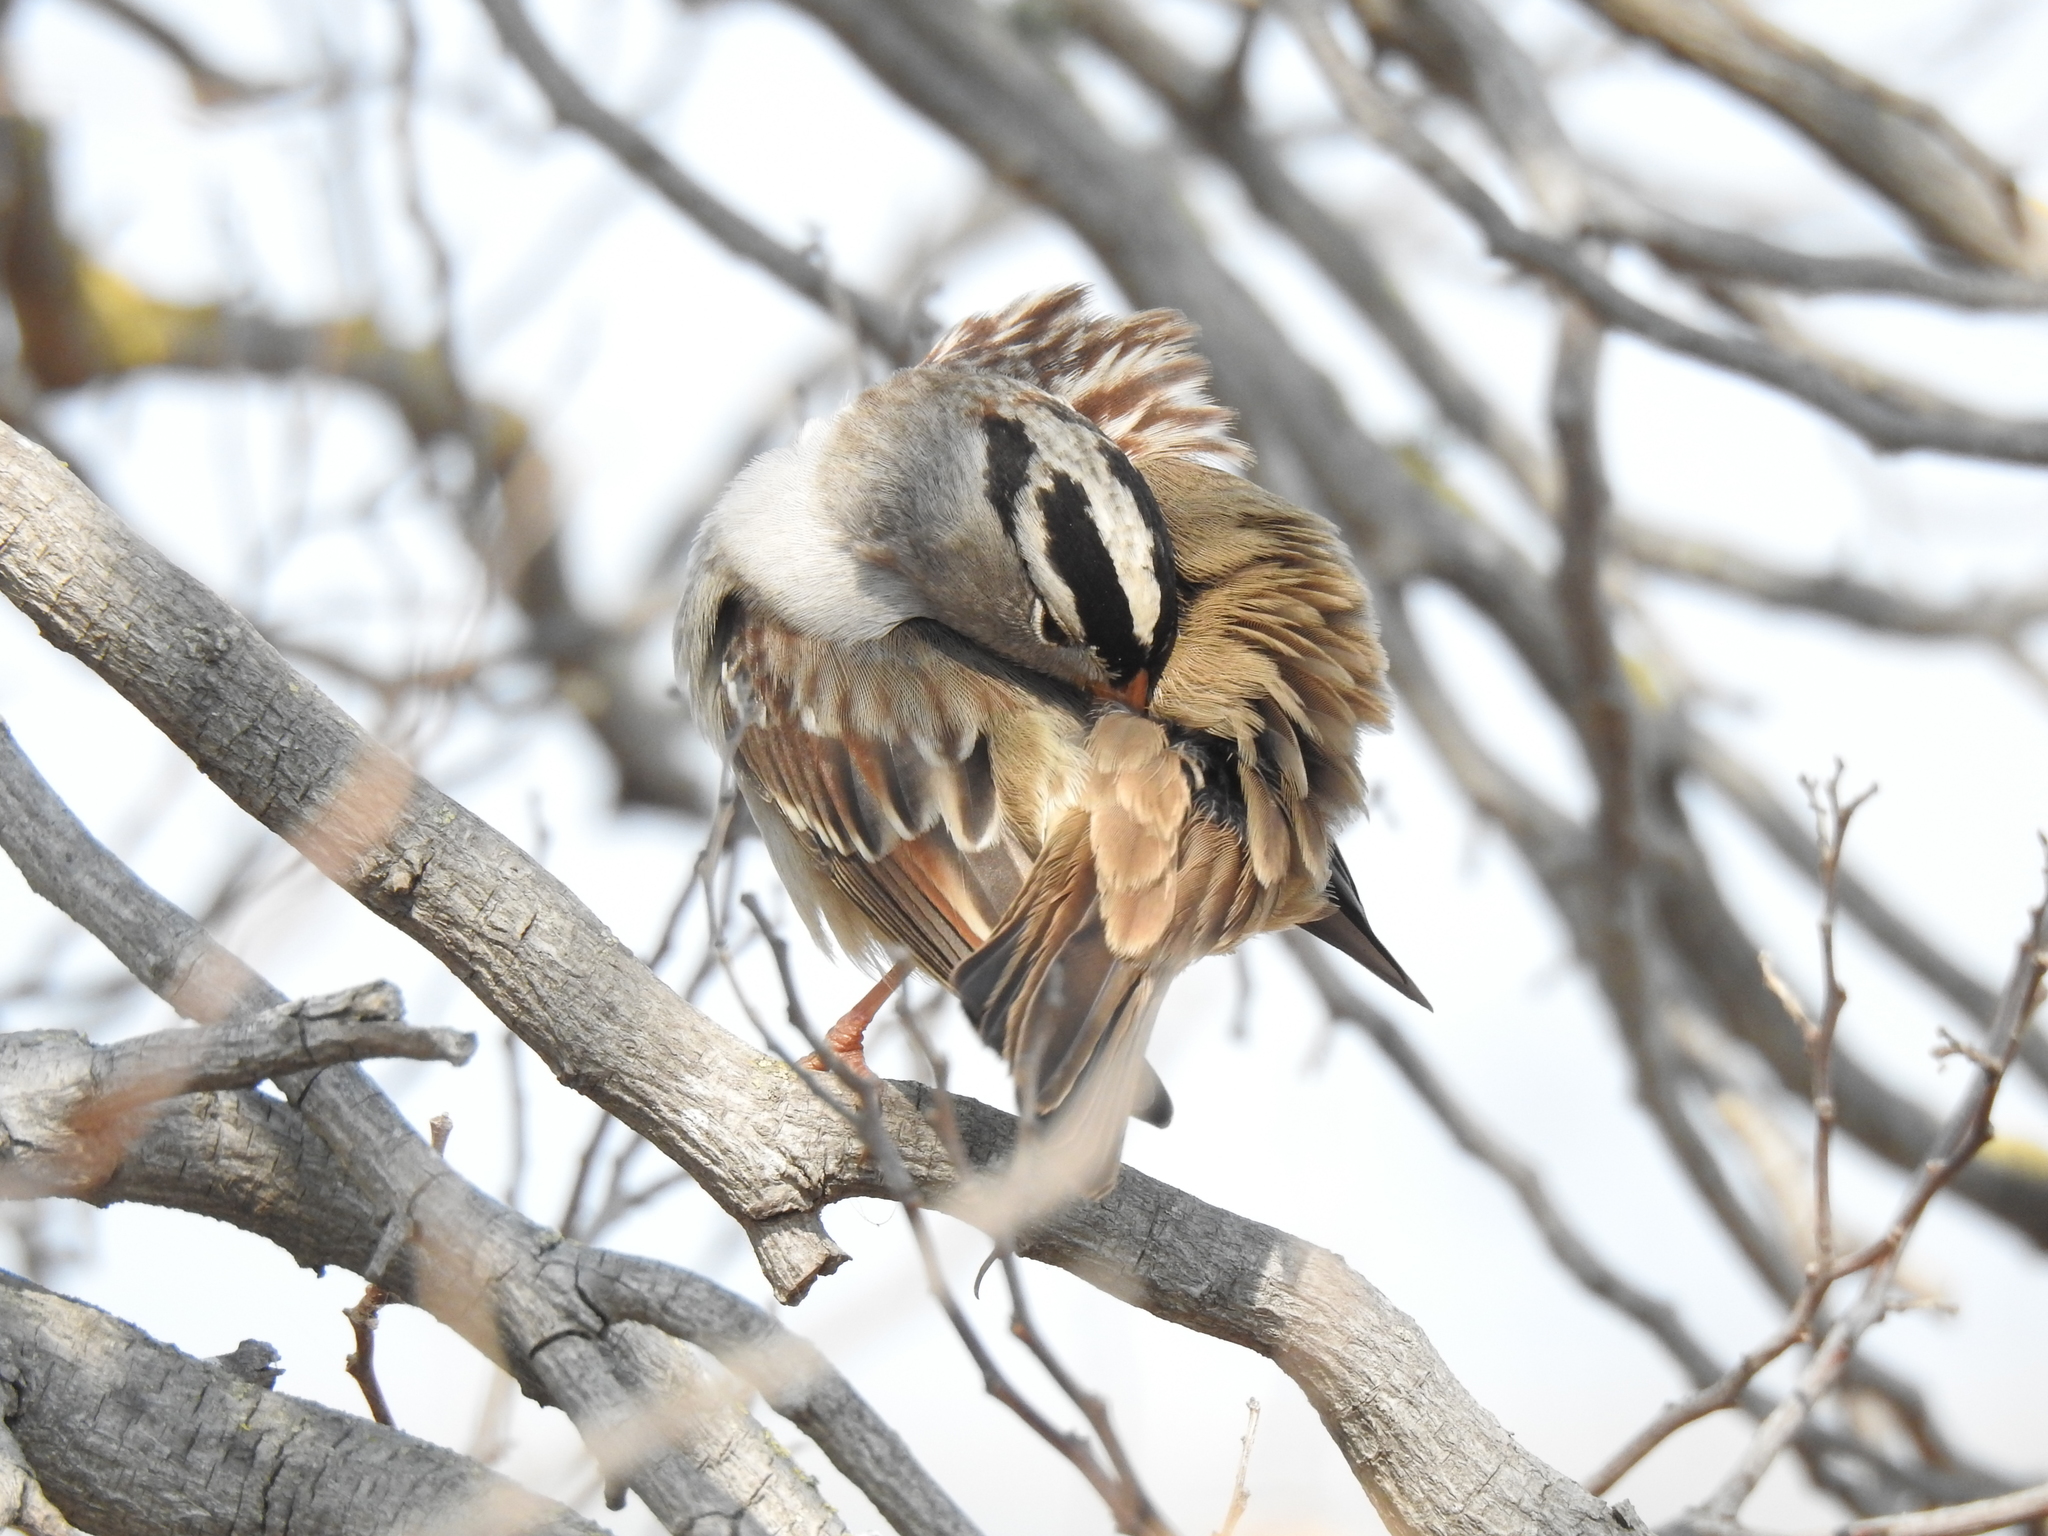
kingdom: Animalia
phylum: Chordata
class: Aves
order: Passeriformes
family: Passerellidae
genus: Zonotrichia
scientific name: Zonotrichia leucophrys
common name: White-crowned sparrow
